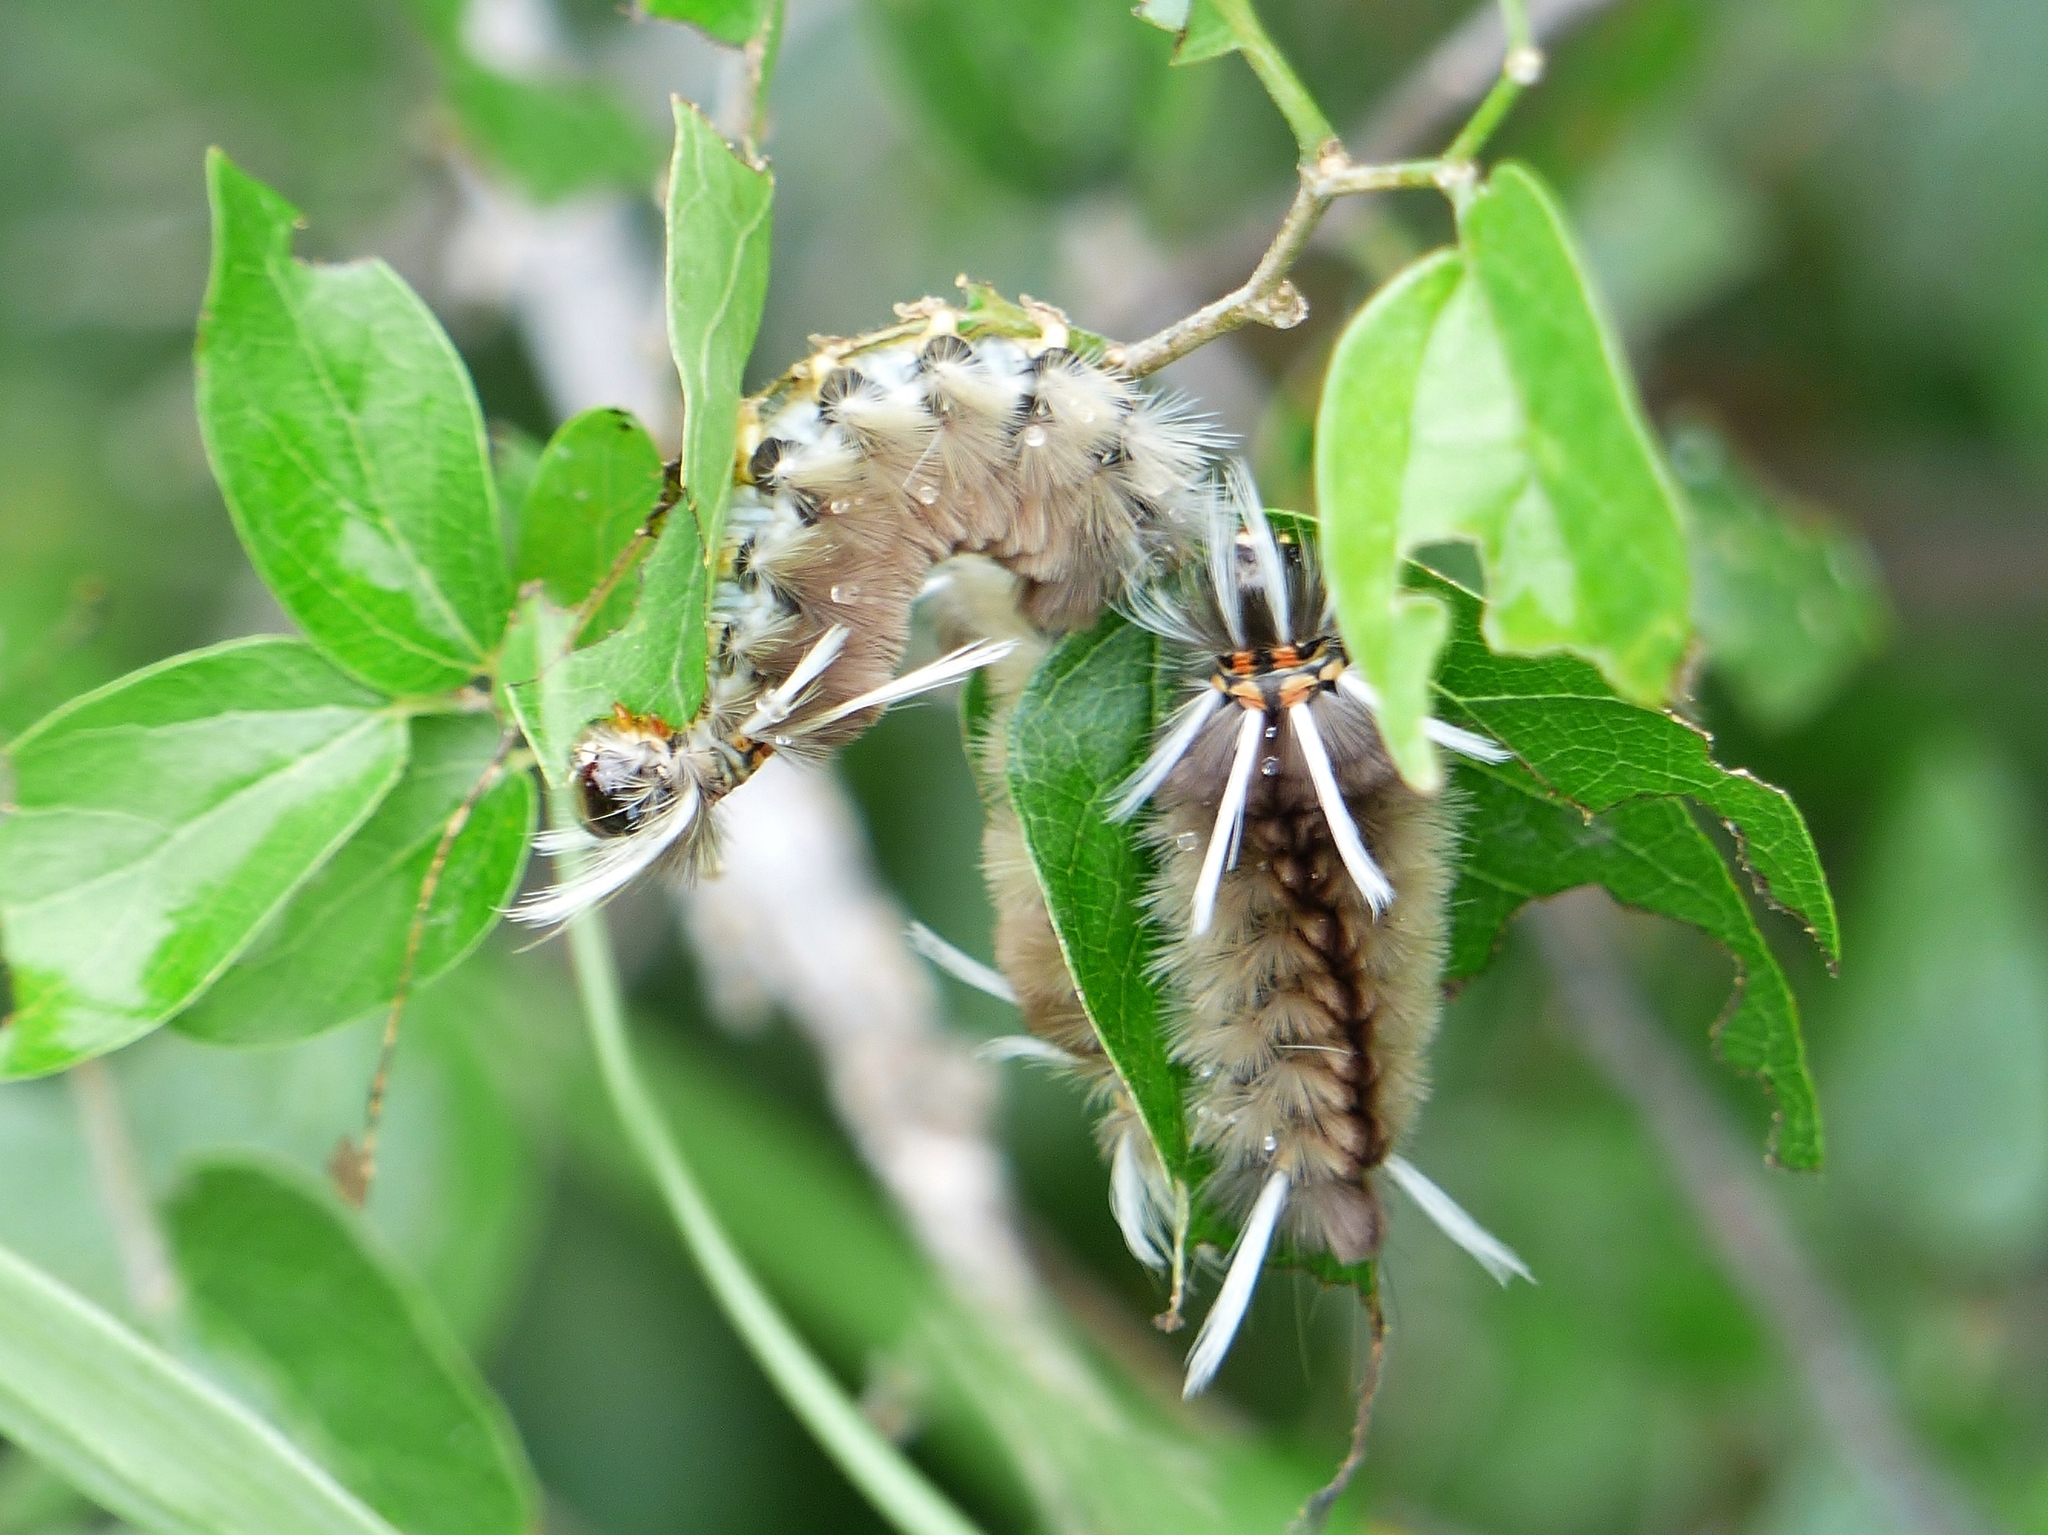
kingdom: Animalia
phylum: Arthropoda
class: Insecta
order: Lepidoptera
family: Erebidae
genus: Halysidota
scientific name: Halysidota schausi
